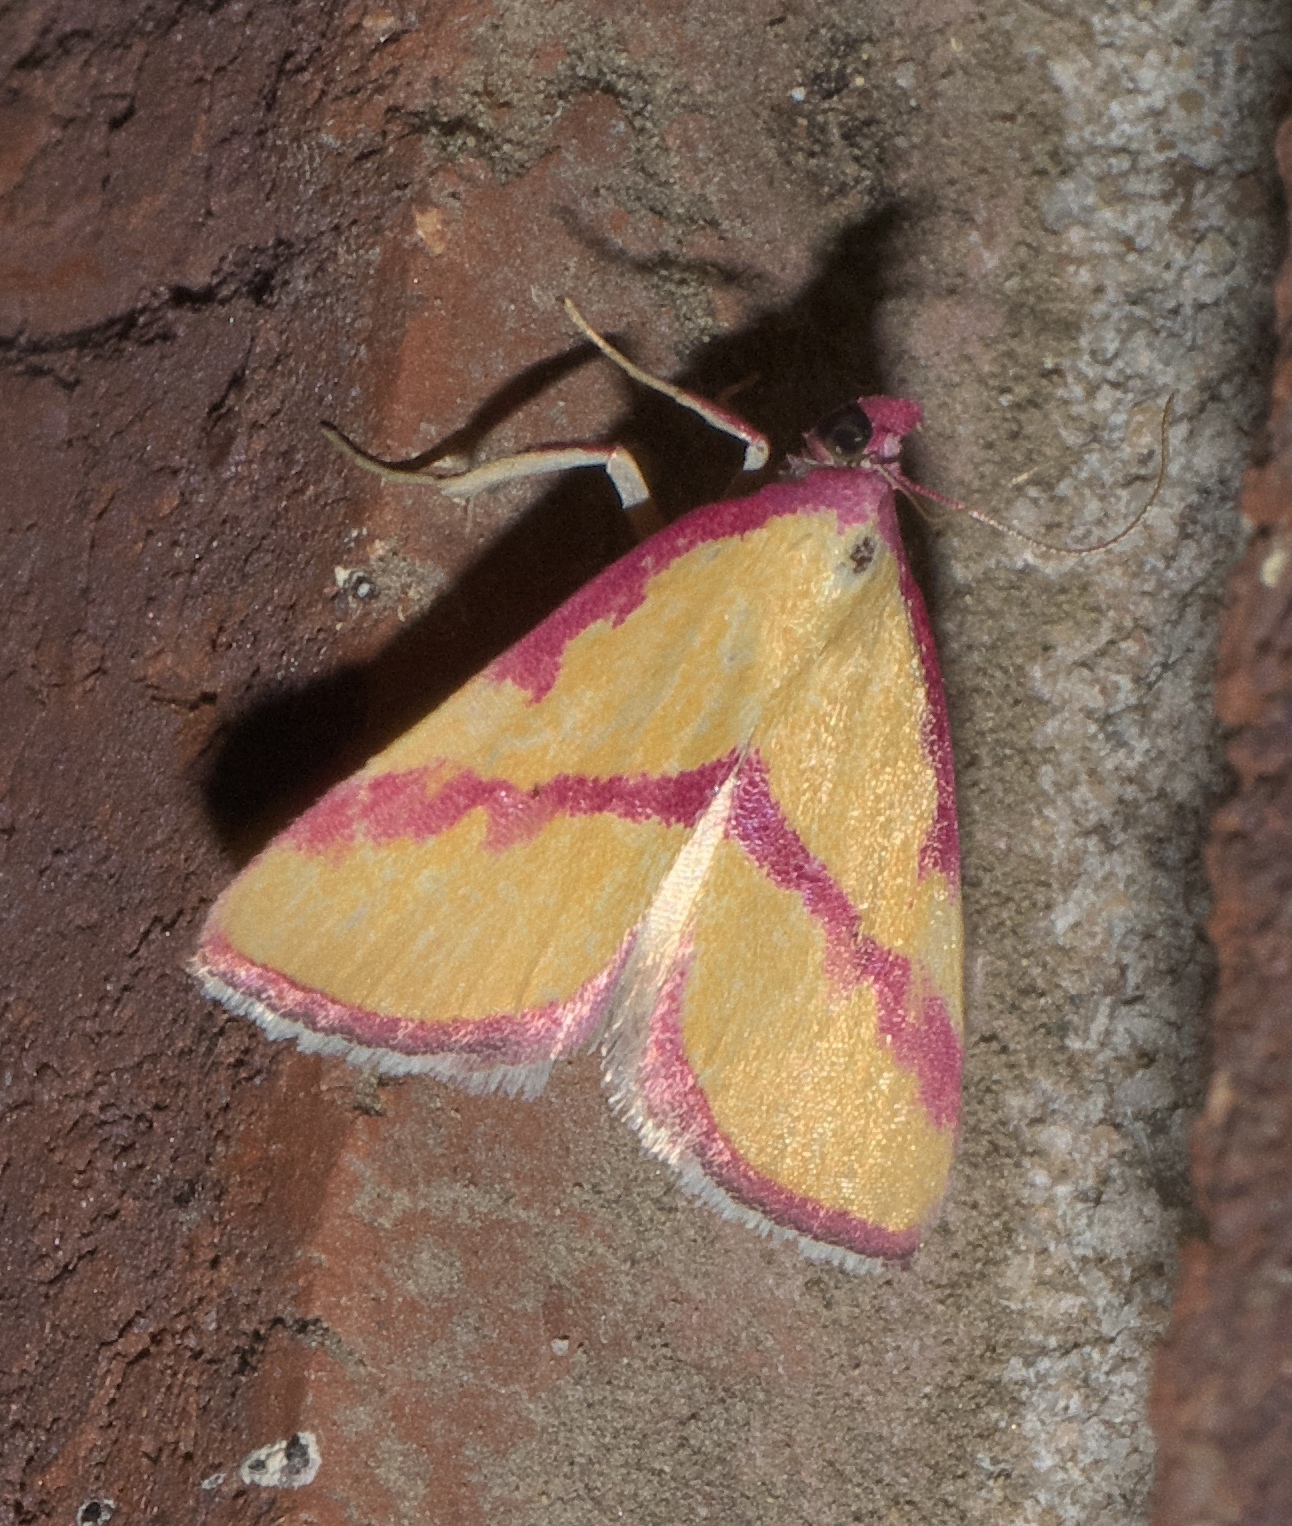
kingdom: Animalia
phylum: Arthropoda
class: Insecta
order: Lepidoptera
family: Erebidae
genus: Phytometra
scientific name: Phytometra ernestinana
